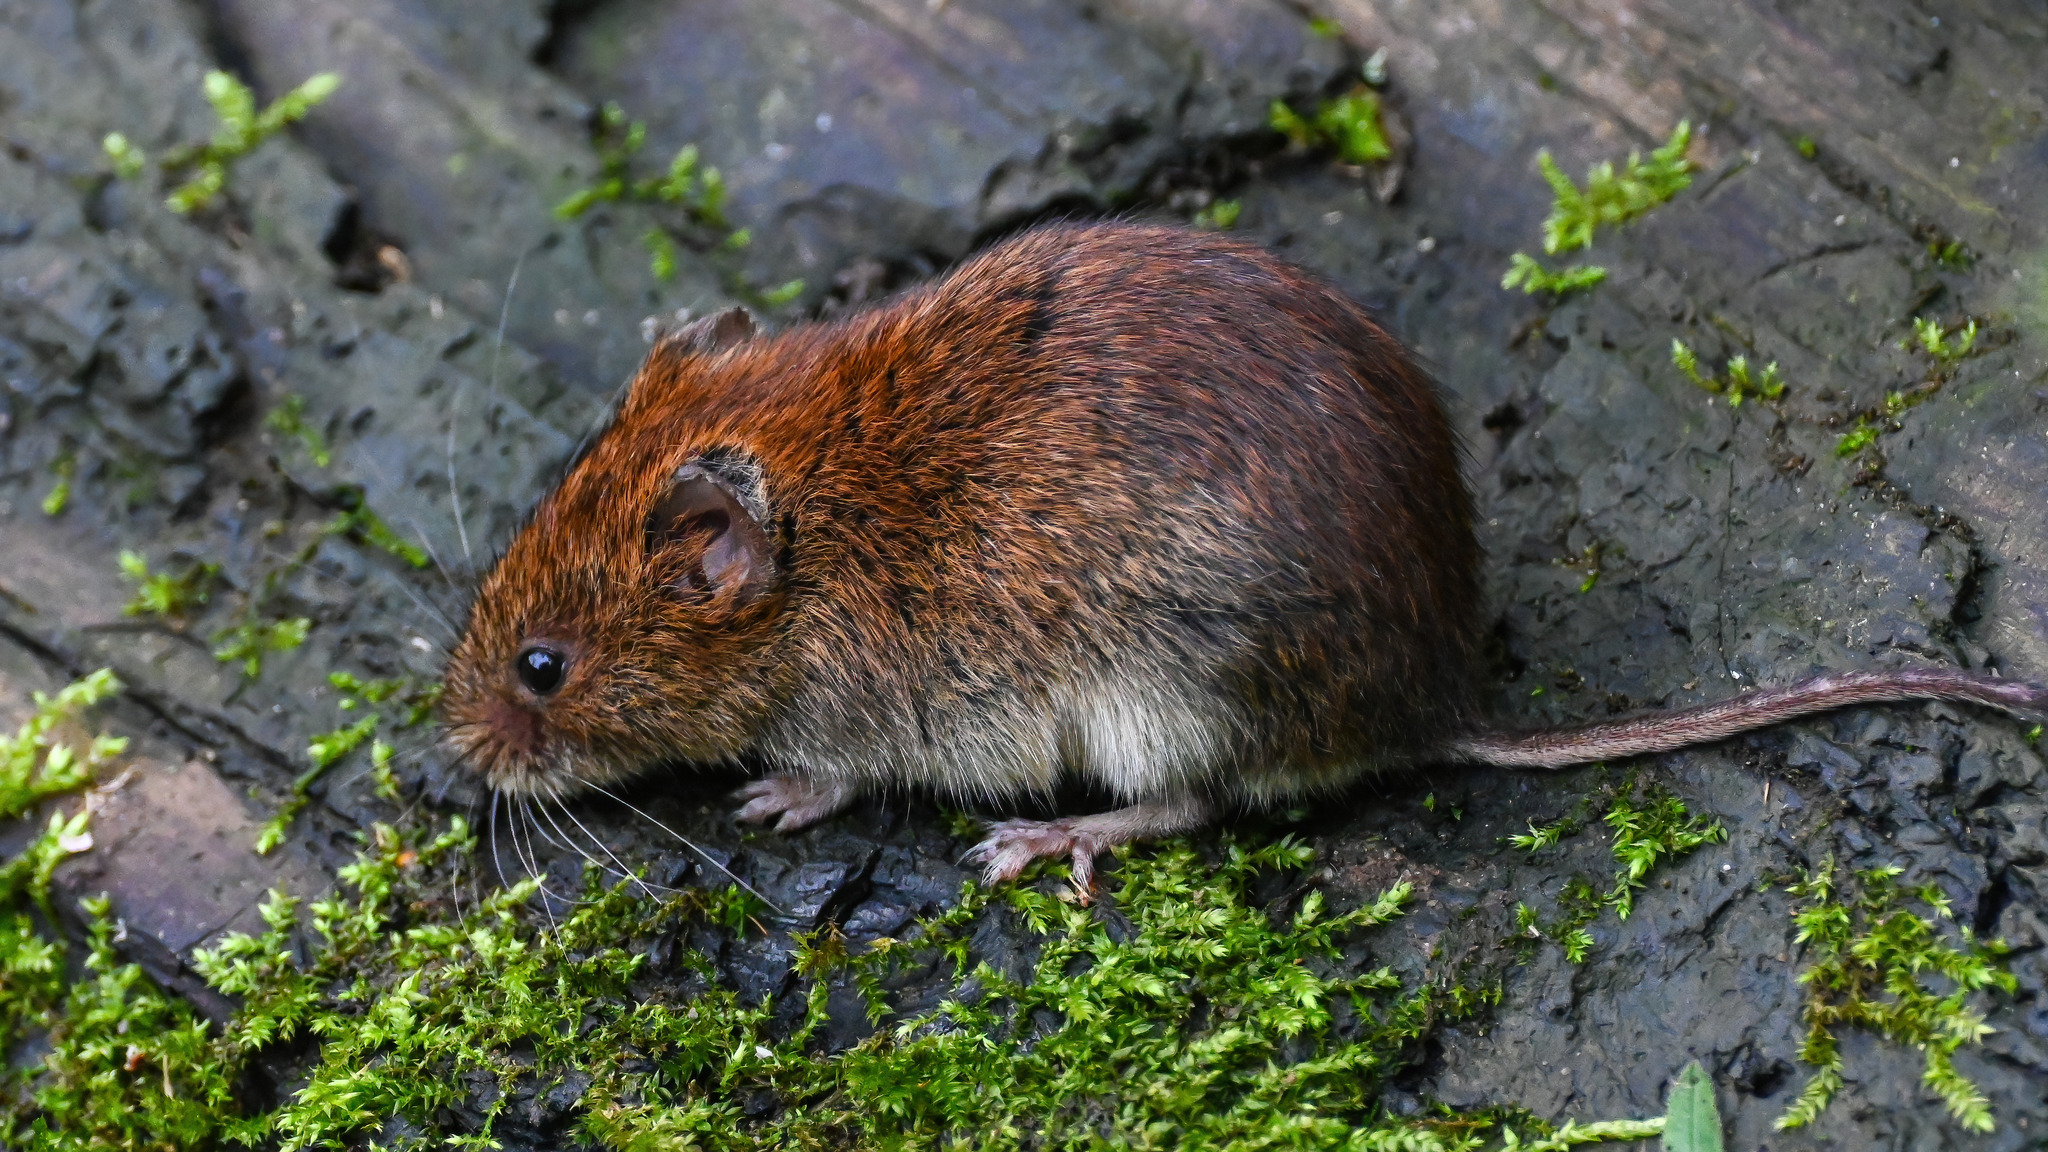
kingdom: Animalia
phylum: Chordata
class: Mammalia
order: Rodentia
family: Cricetidae
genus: Myodes
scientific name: Myodes glareolus
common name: Bank vole
